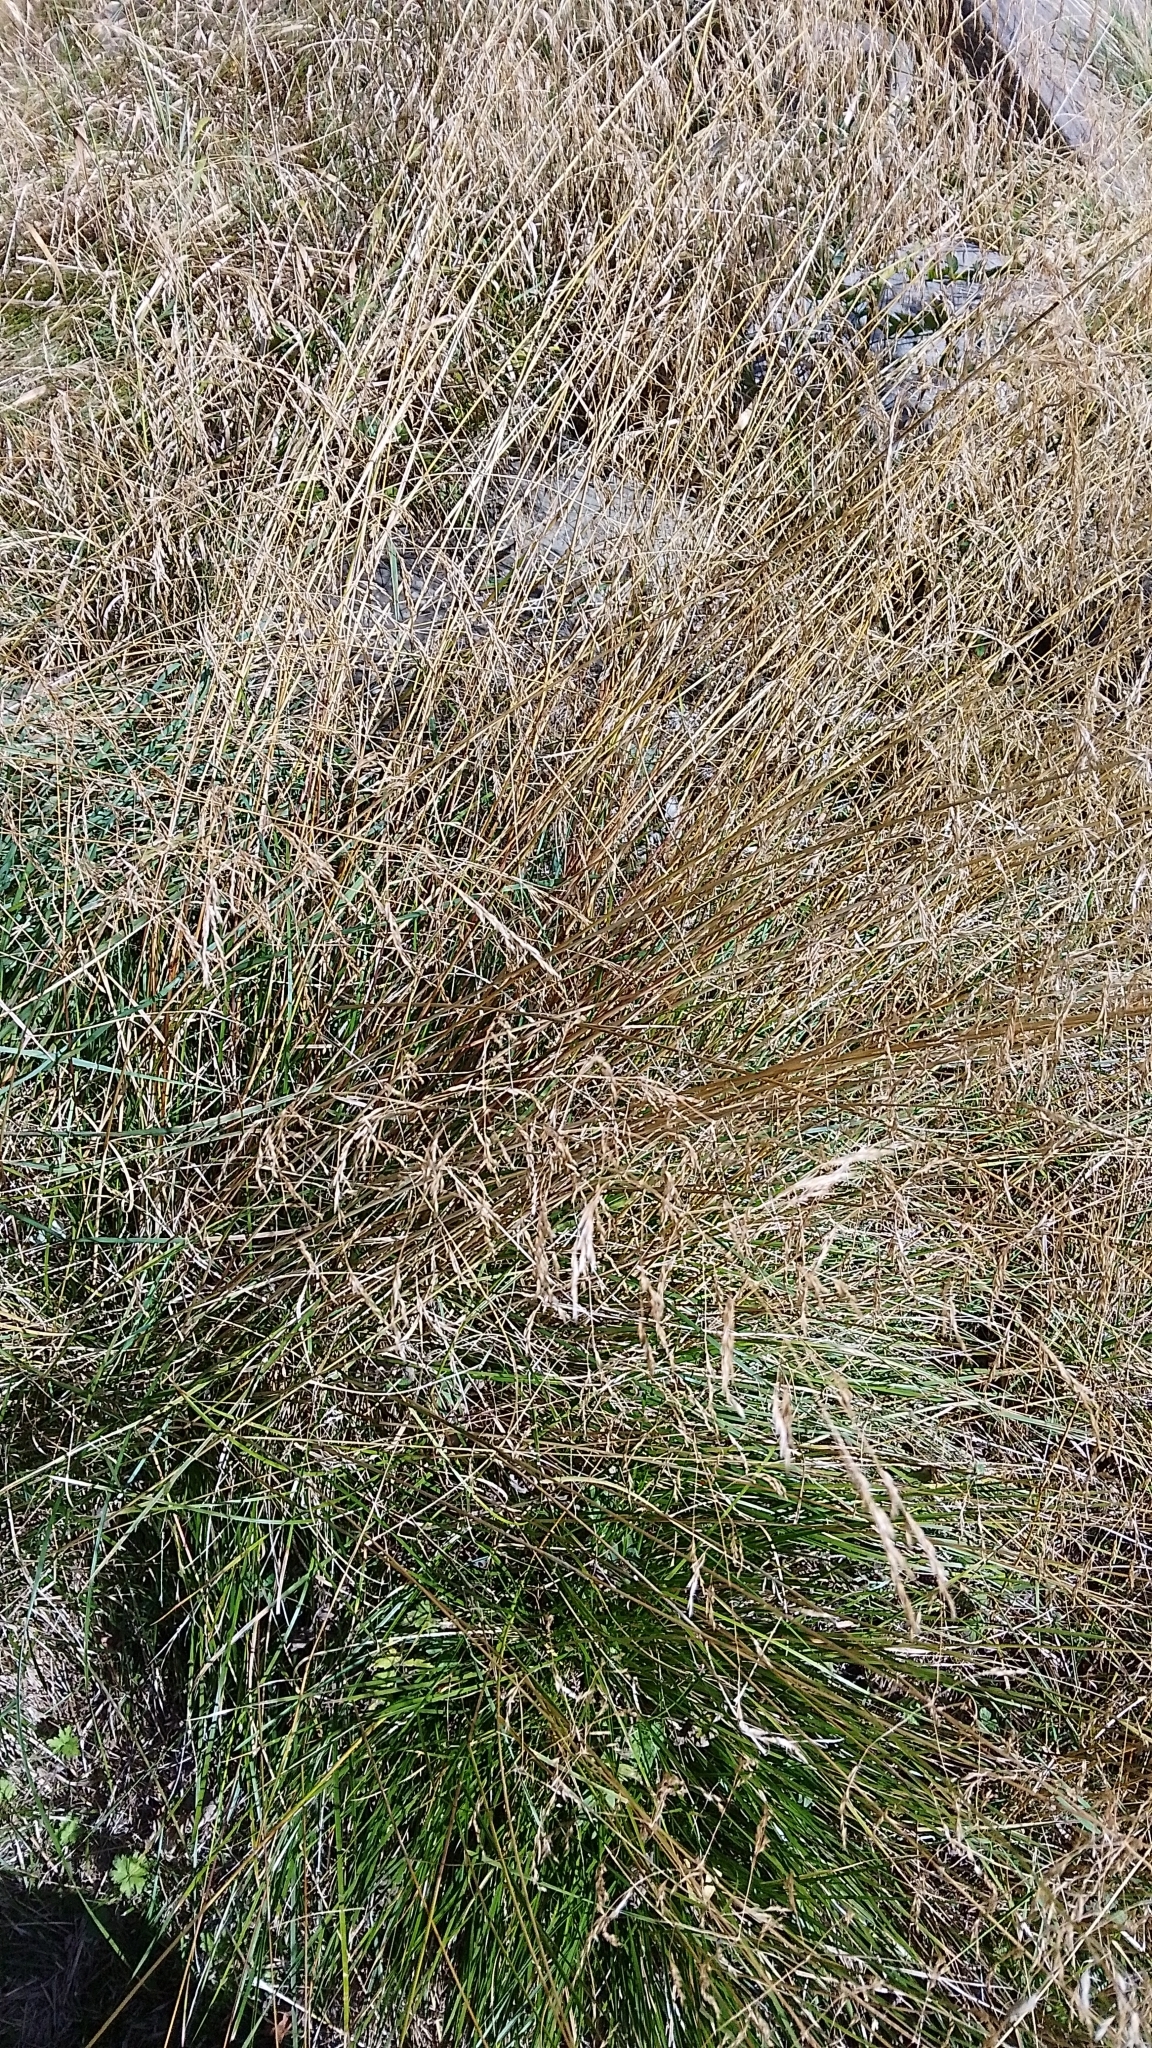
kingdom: Plantae
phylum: Tracheophyta
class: Liliopsida
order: Poales
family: Poaceae
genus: Deschampsia
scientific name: Deschampsia cespitosa
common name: Tufted hair-grass
